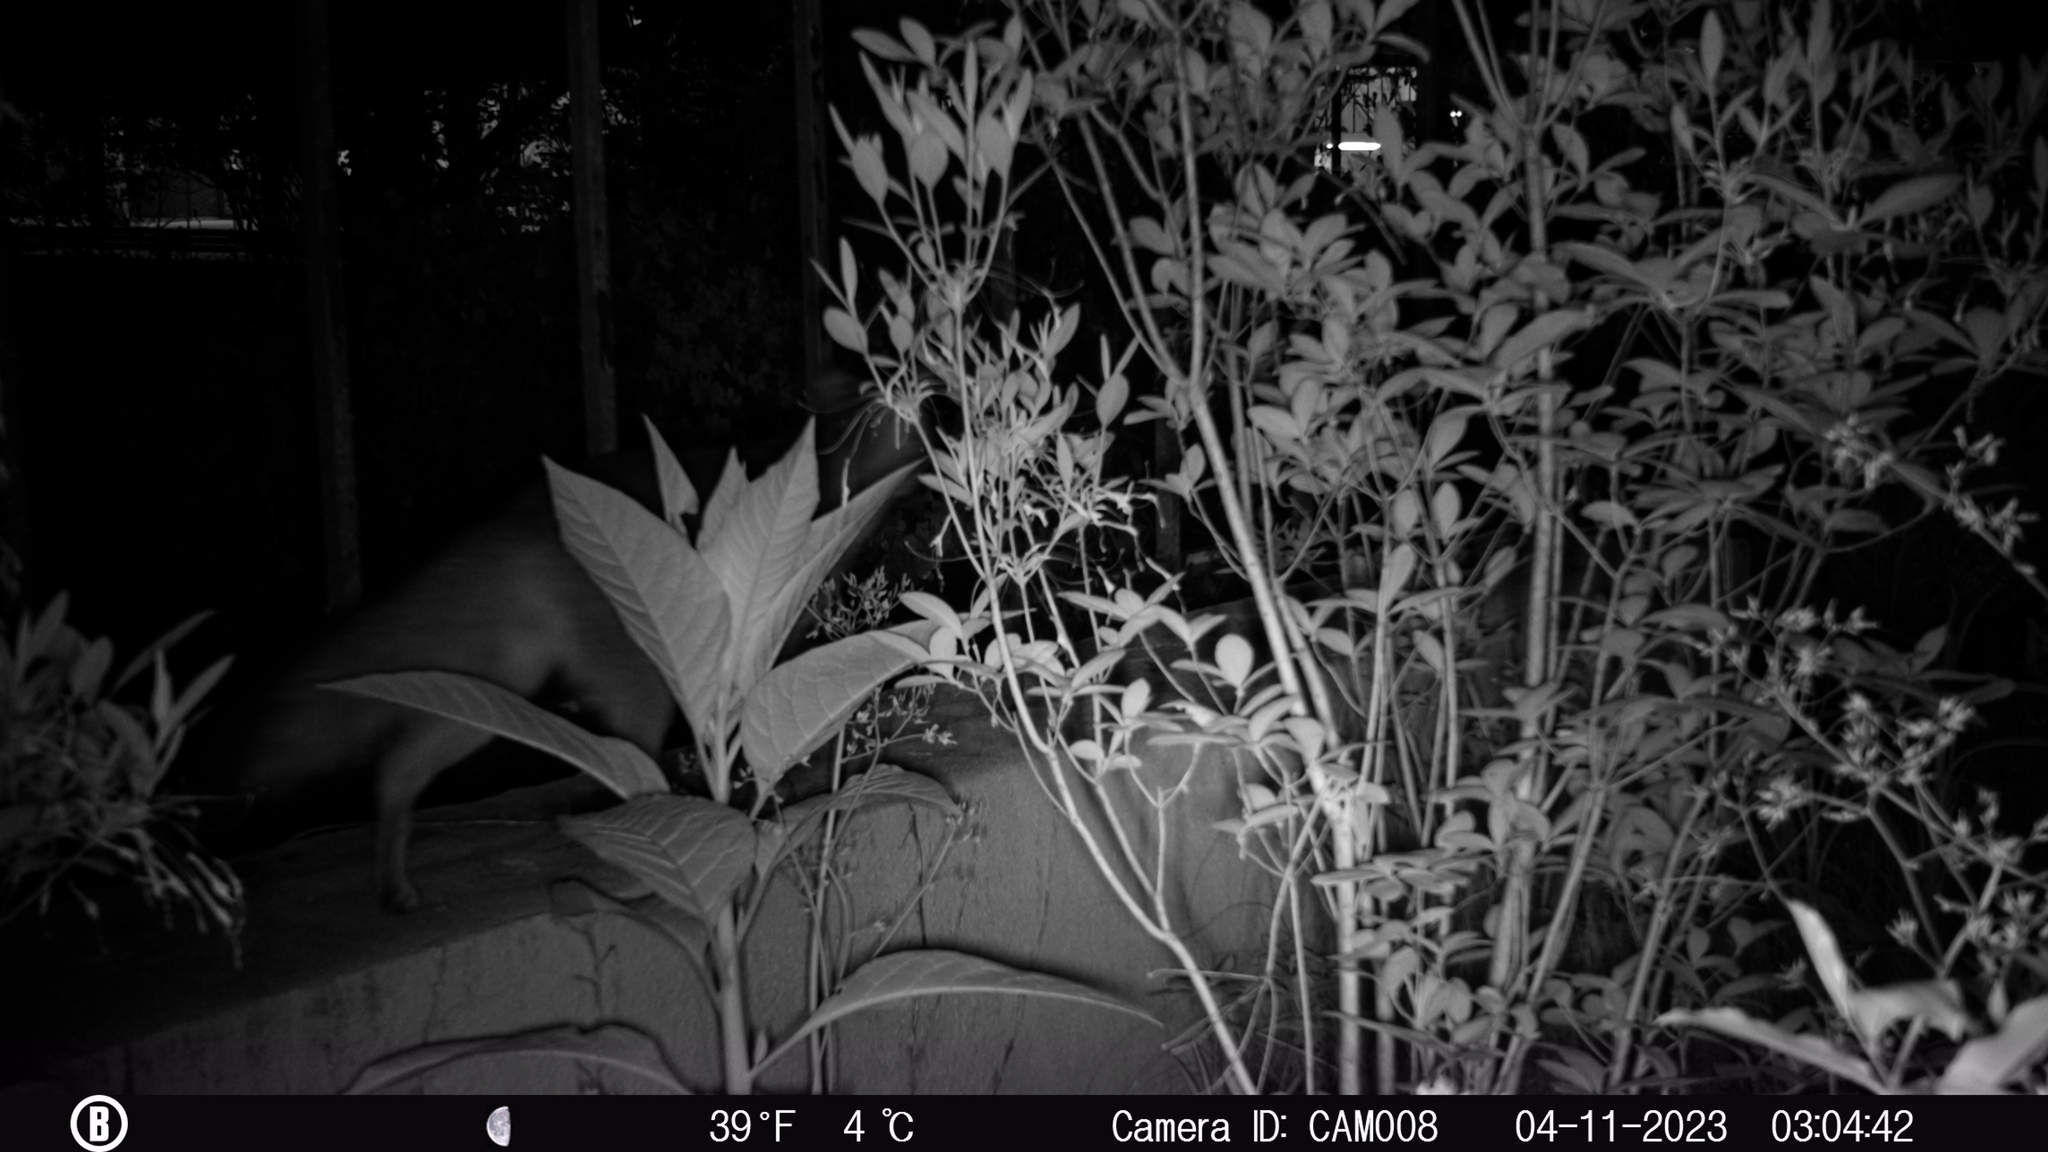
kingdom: Animalia
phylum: Chordata
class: Mammalia
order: Carnivora
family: Canidae
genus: Urocyon
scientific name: Urocyon cinereoargenteus
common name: Gray fox
